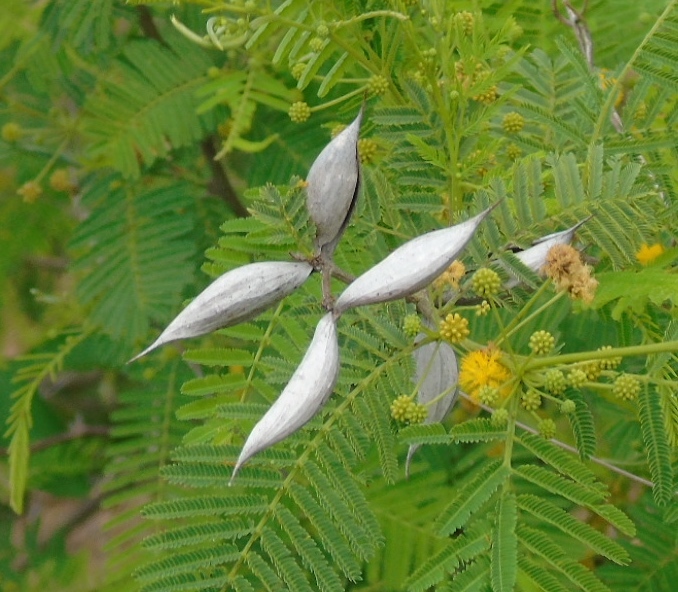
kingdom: Plantae
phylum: Tracheophyta
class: Magnoliopsida
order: Fabales
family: Fabaceae
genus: Vachellia
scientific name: Vachellia campechiana
